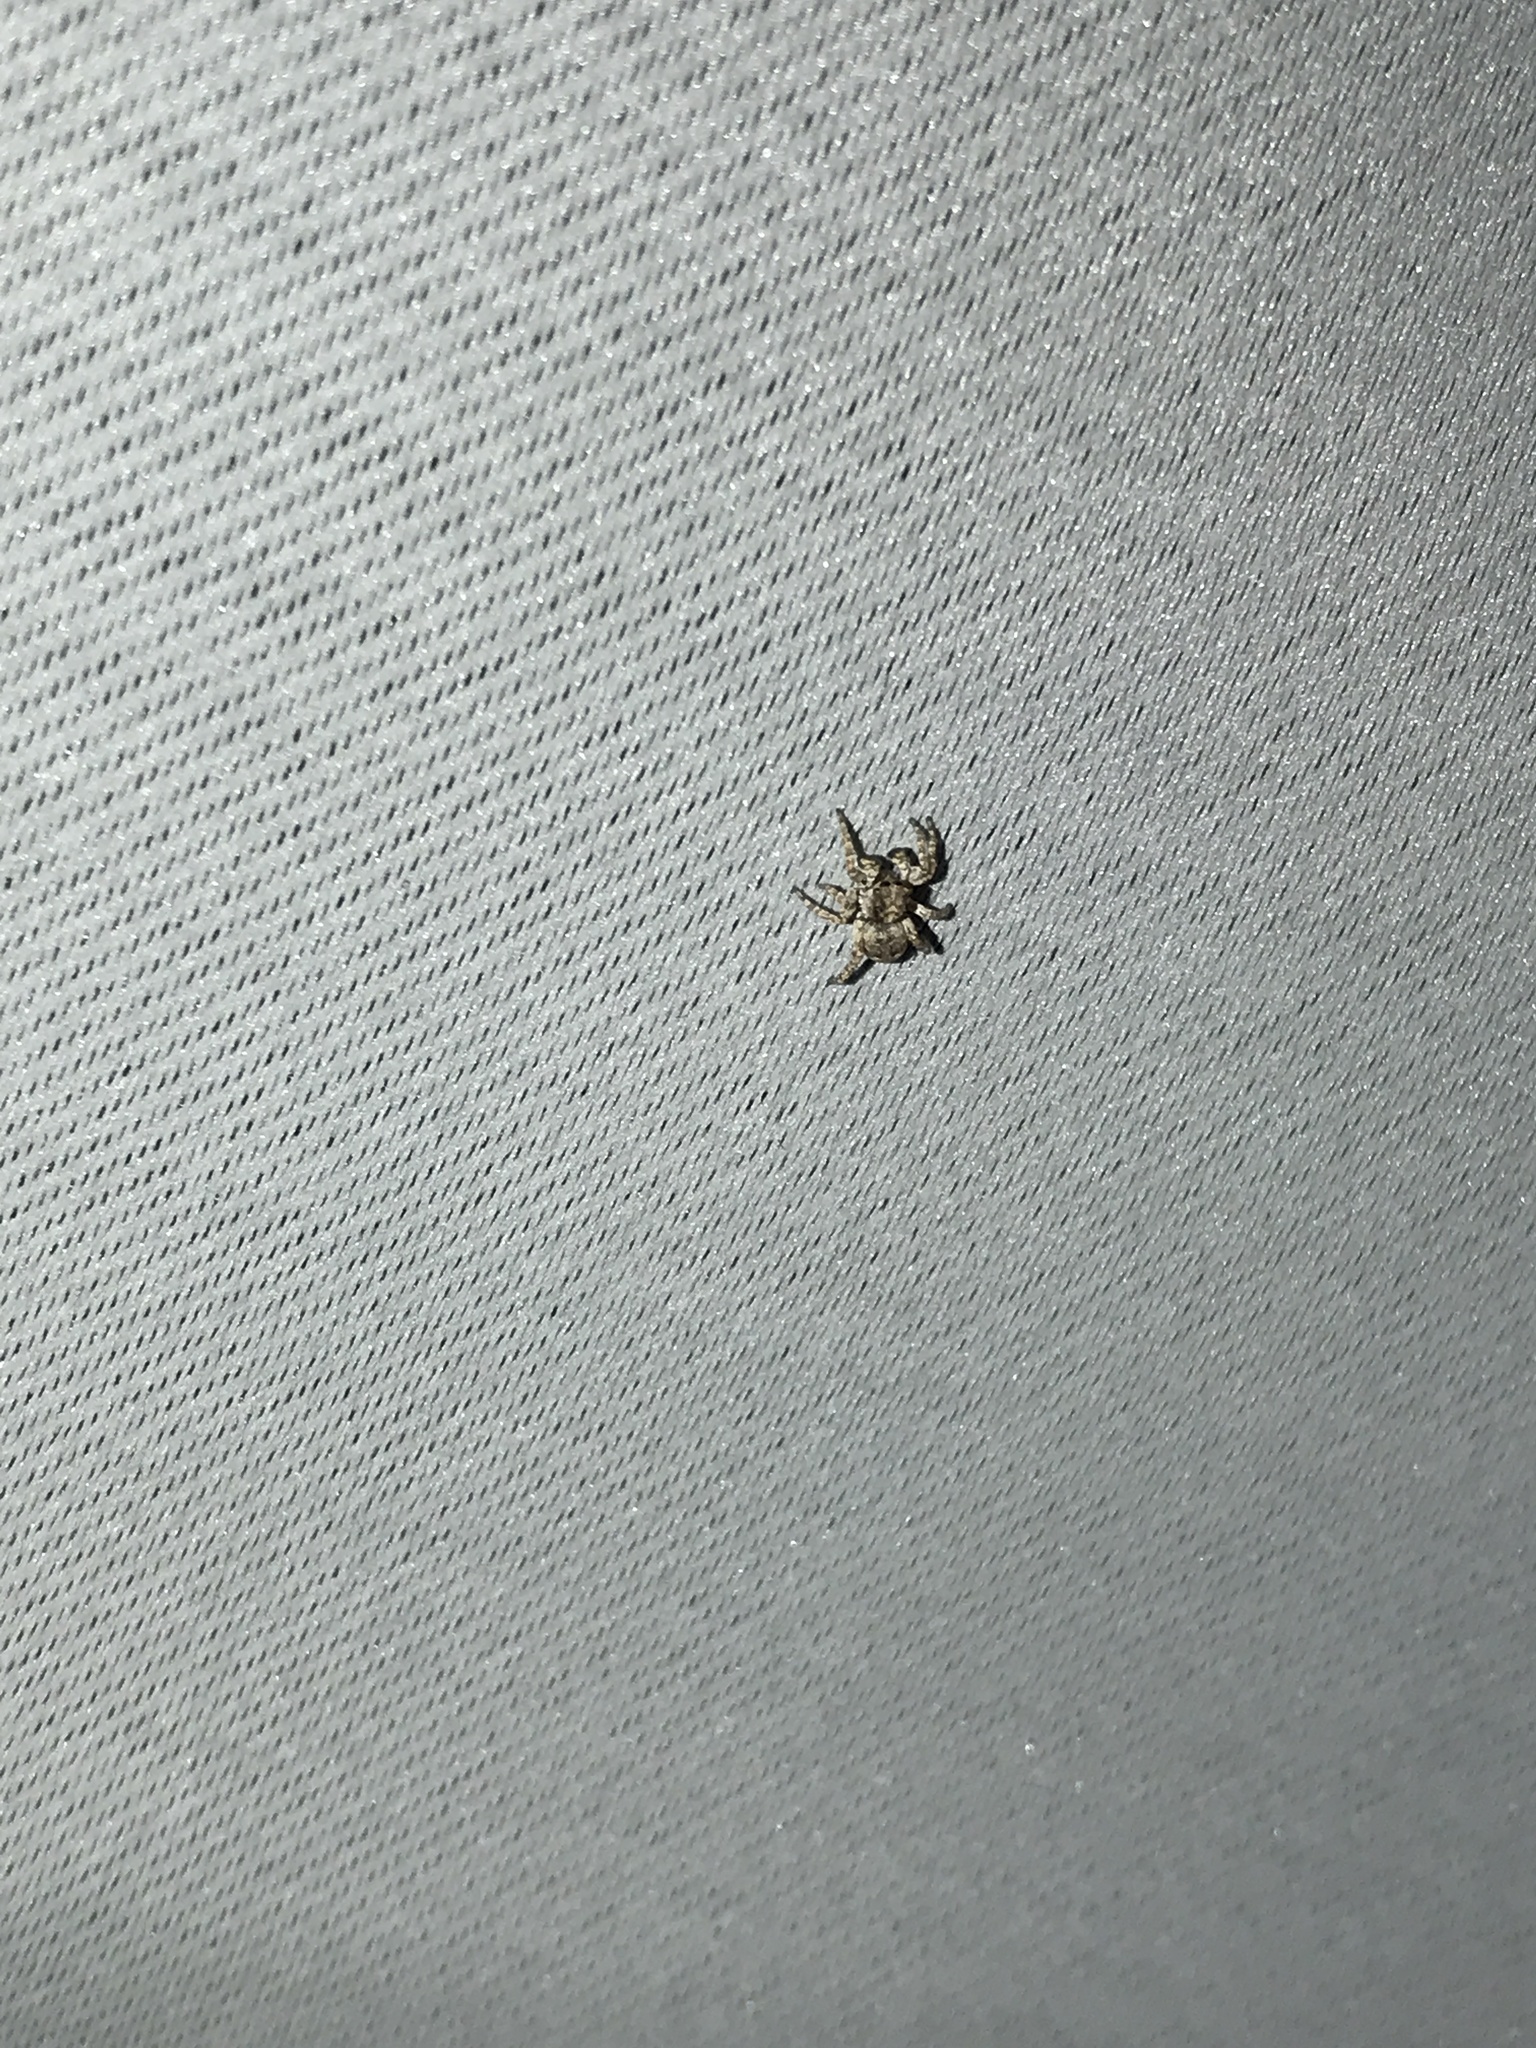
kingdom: Animalia
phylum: Arthropoda
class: Arachnida
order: Araneae
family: Salticidae
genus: Attulus
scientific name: Attulus fasciger
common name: Asiatic wall jumping spider
